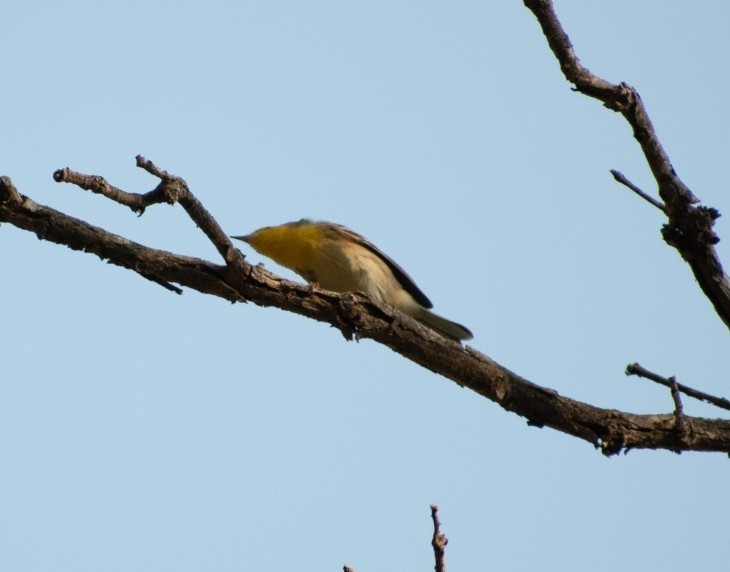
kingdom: Animalia
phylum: Chordata
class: Aves
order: Passeriformes
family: Parulidae
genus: Setophaga
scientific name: Setophaga graciae
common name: Grace's warbler
